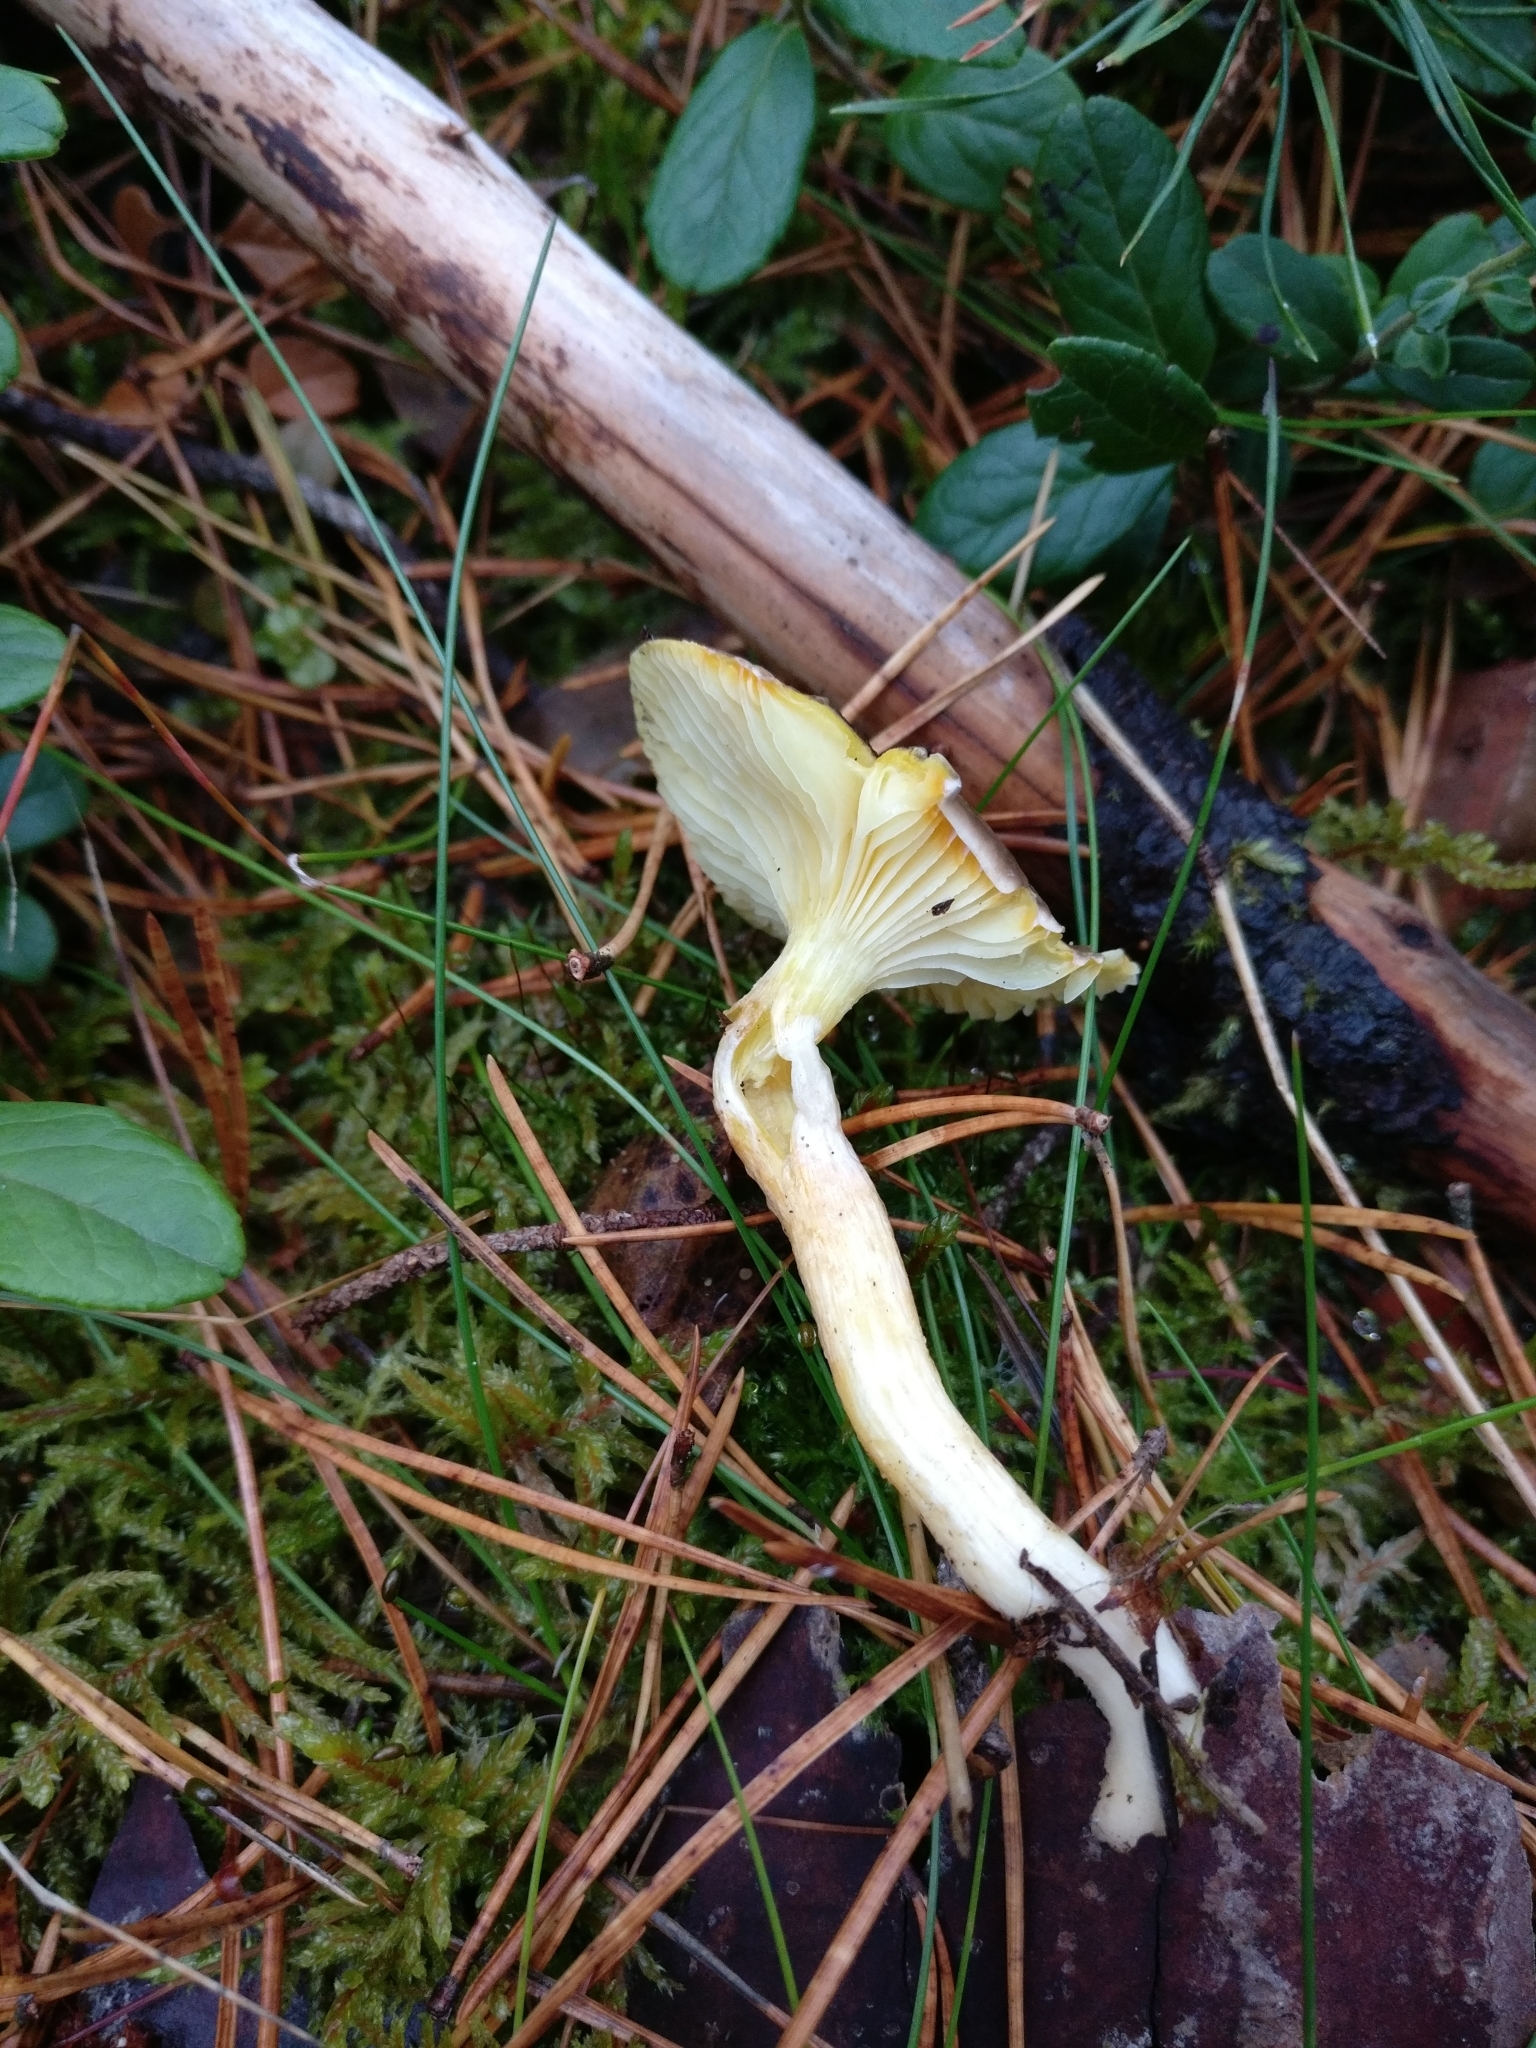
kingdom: Fungi
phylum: Basidiomycota
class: Agaricomycetes
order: Agaricales
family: Hygrophoraceae
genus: Hygrophorus
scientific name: Hygrophorus hypothejus
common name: Herald of winter
